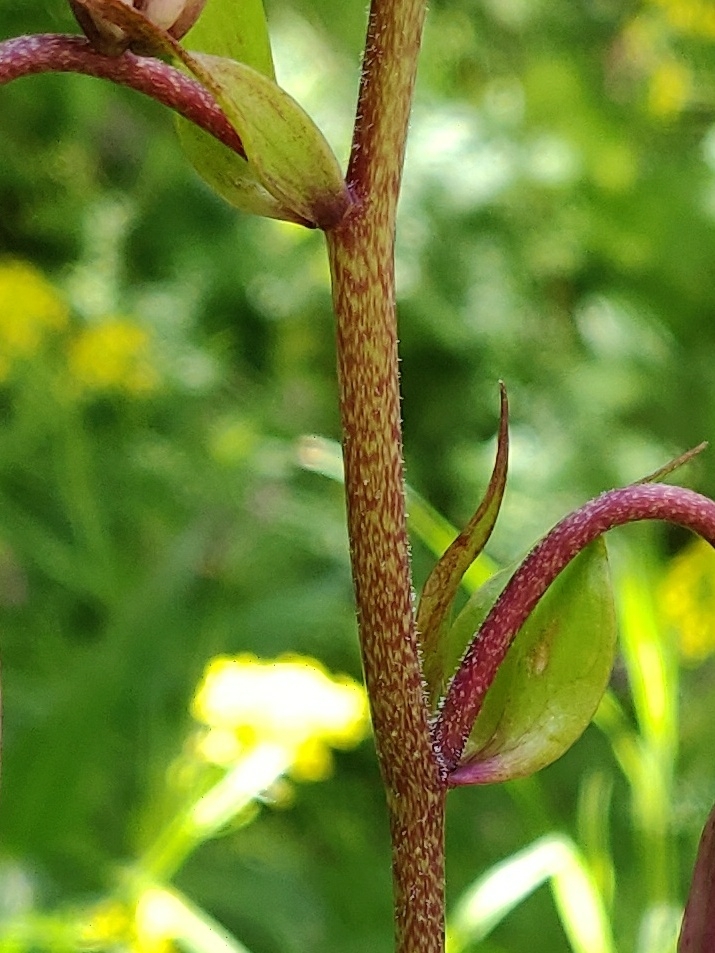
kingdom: Plantae
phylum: Tracheophyta
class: Liliopsida
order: Liliales
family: Liliaceae
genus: Lilium
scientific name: Lilium martagon
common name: Martagon lily
